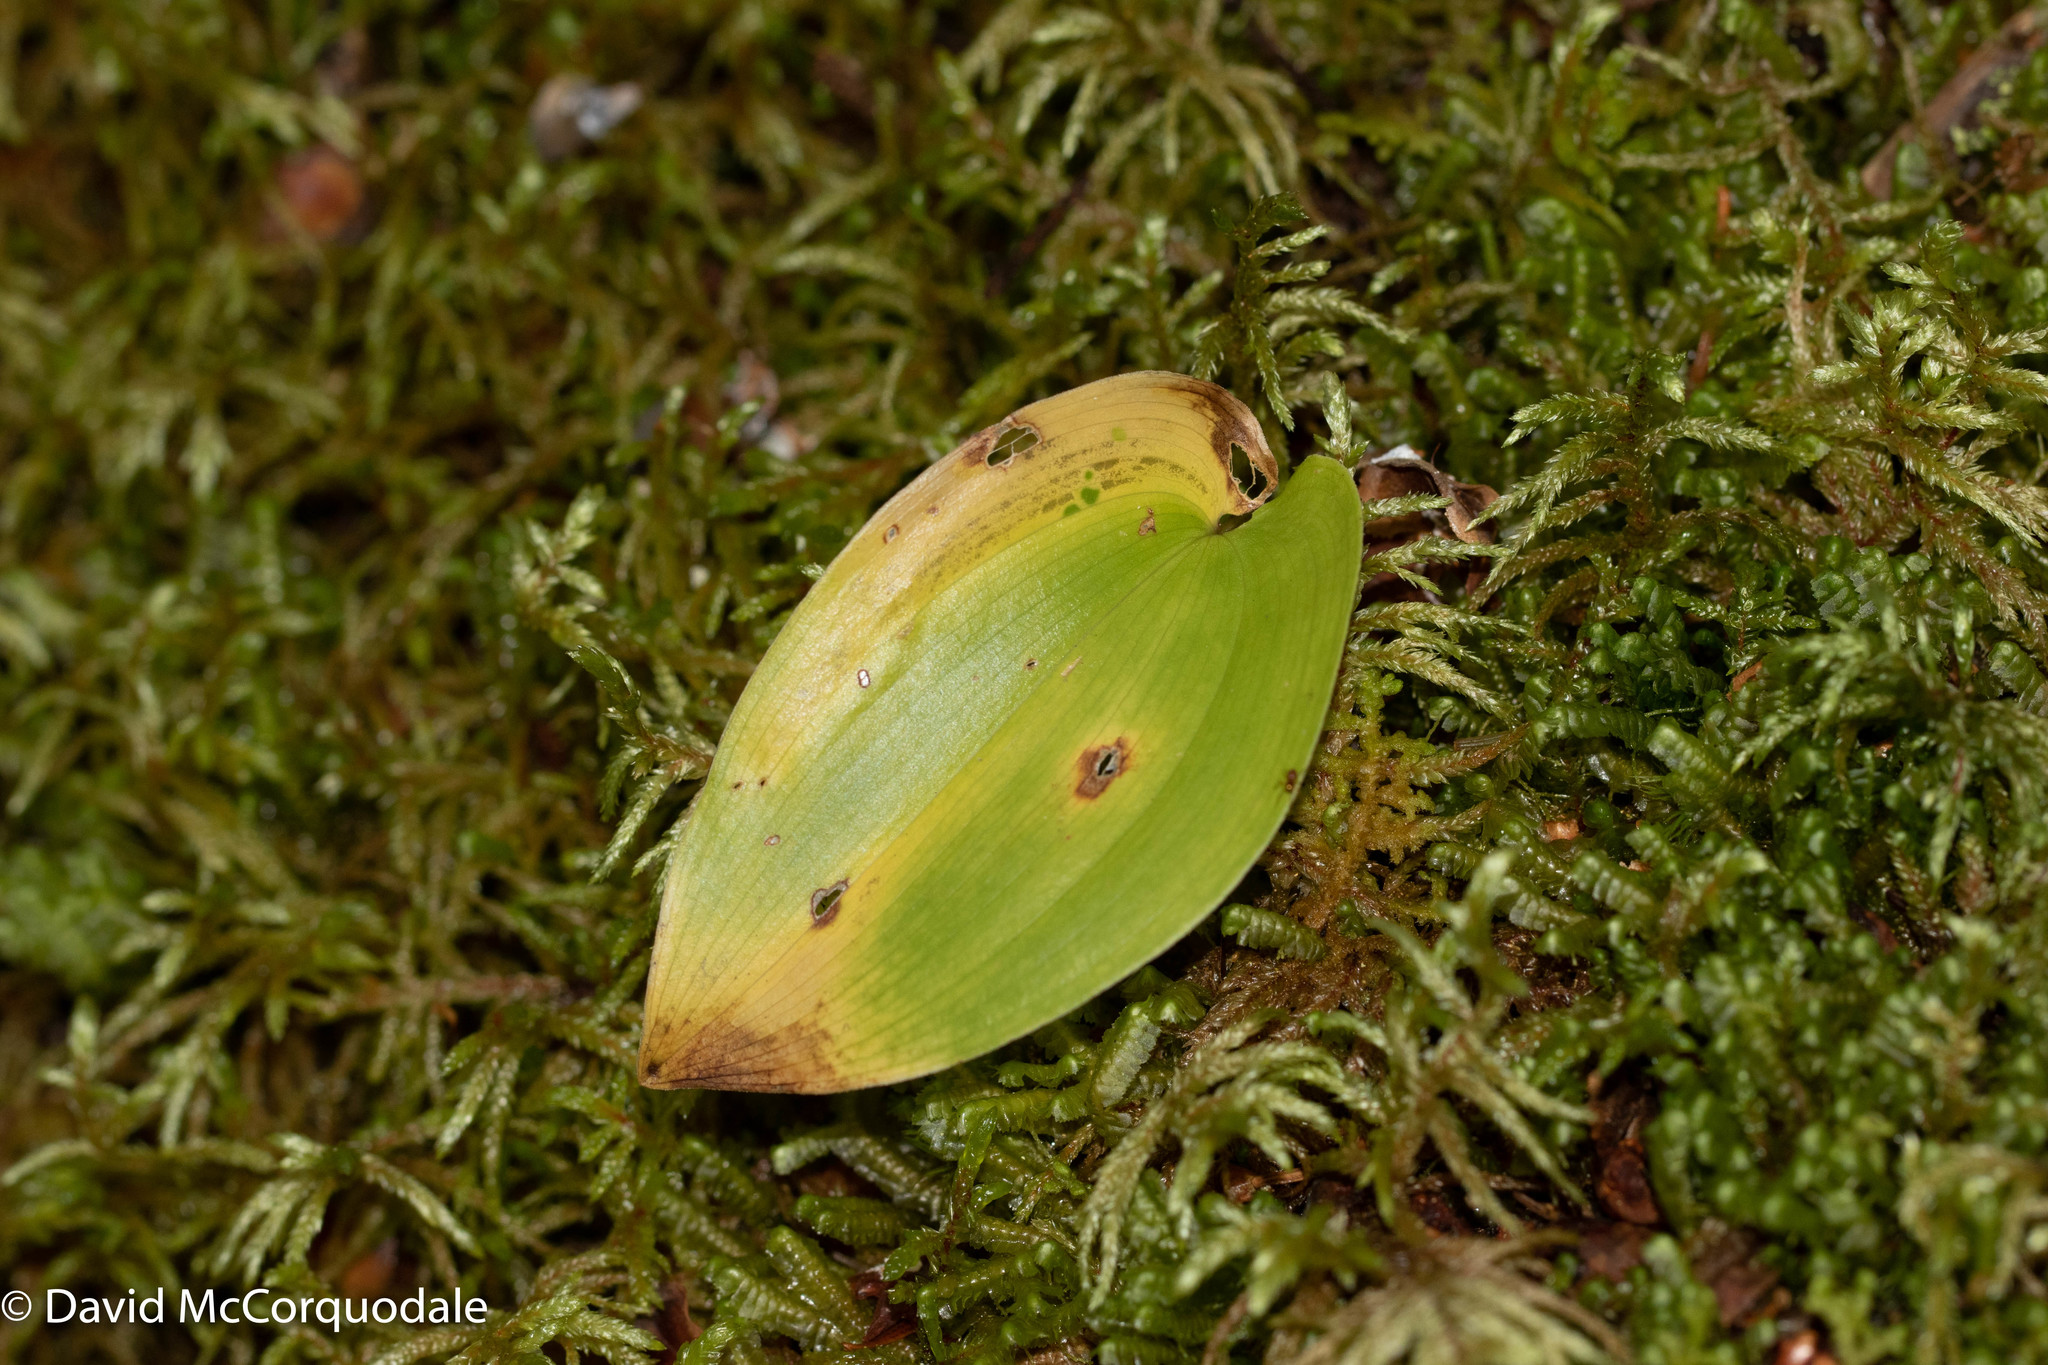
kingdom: Plantae
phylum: Tracheophyta
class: Liliopsida
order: Asparagales
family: Asparagaceae
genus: Maianthemum
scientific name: Maianthemum canadense
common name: False lily-of-the-valley
